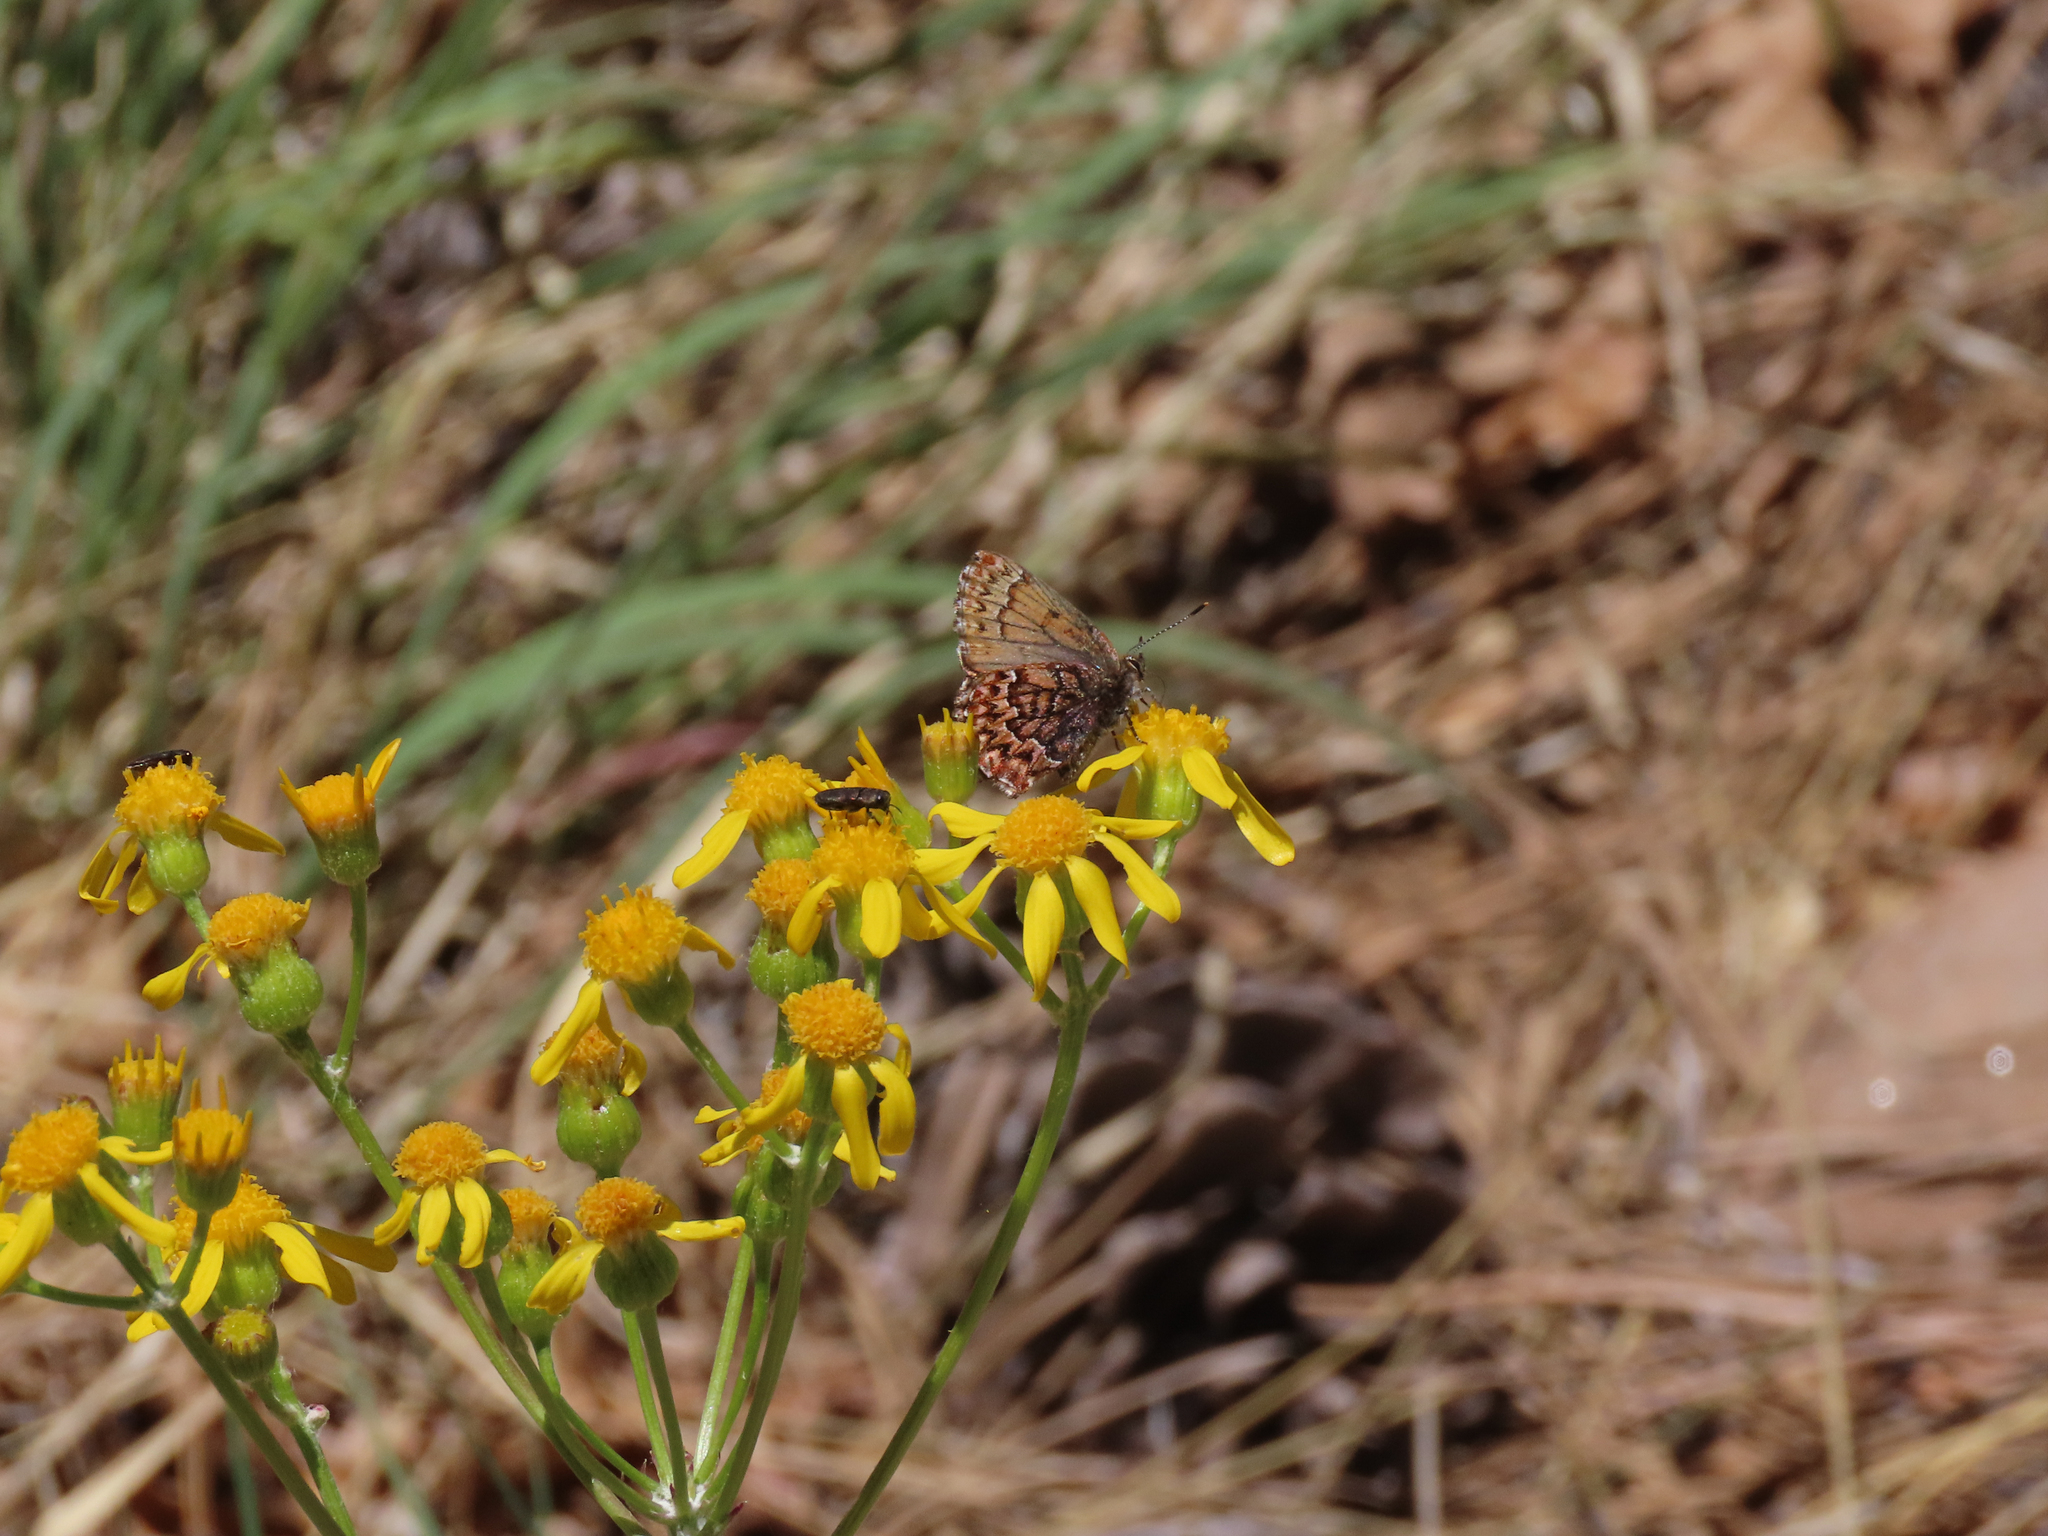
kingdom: Animalia
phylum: Arthropoda
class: Insecta
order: Lepidoptera
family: Lycaenidae
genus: Incisalia
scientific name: Incisalia eryphon
